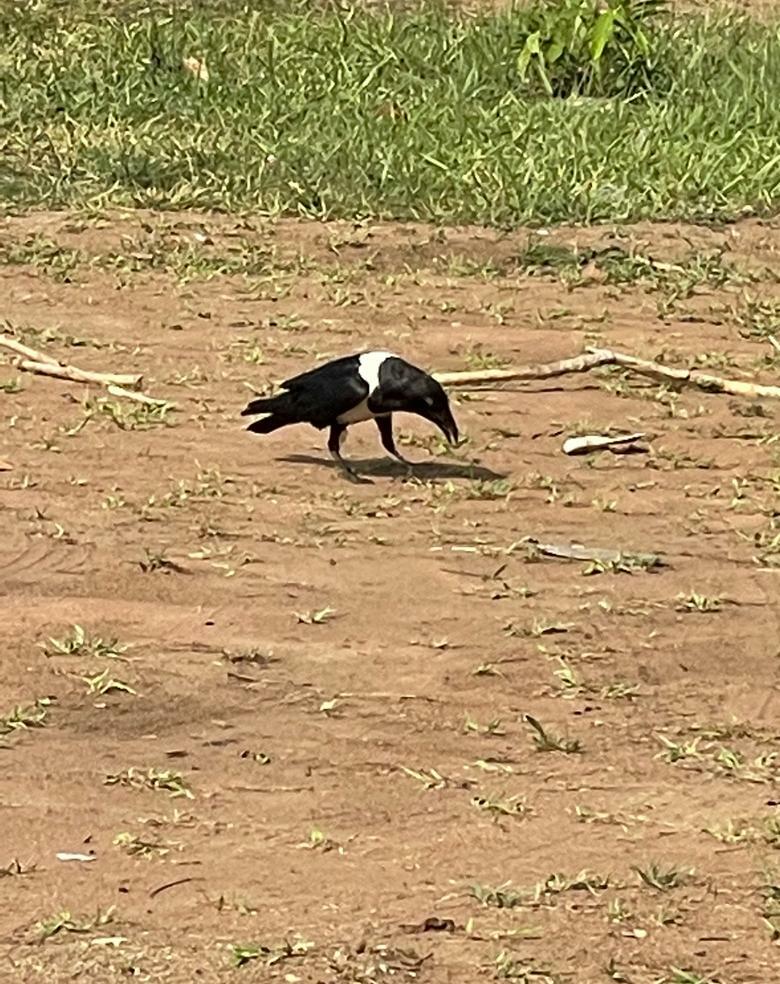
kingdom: Animalia
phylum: Chordata
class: Aves
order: Passeriformes
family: Corvidae
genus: Corvus
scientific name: Corvus albus
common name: Pied crow
